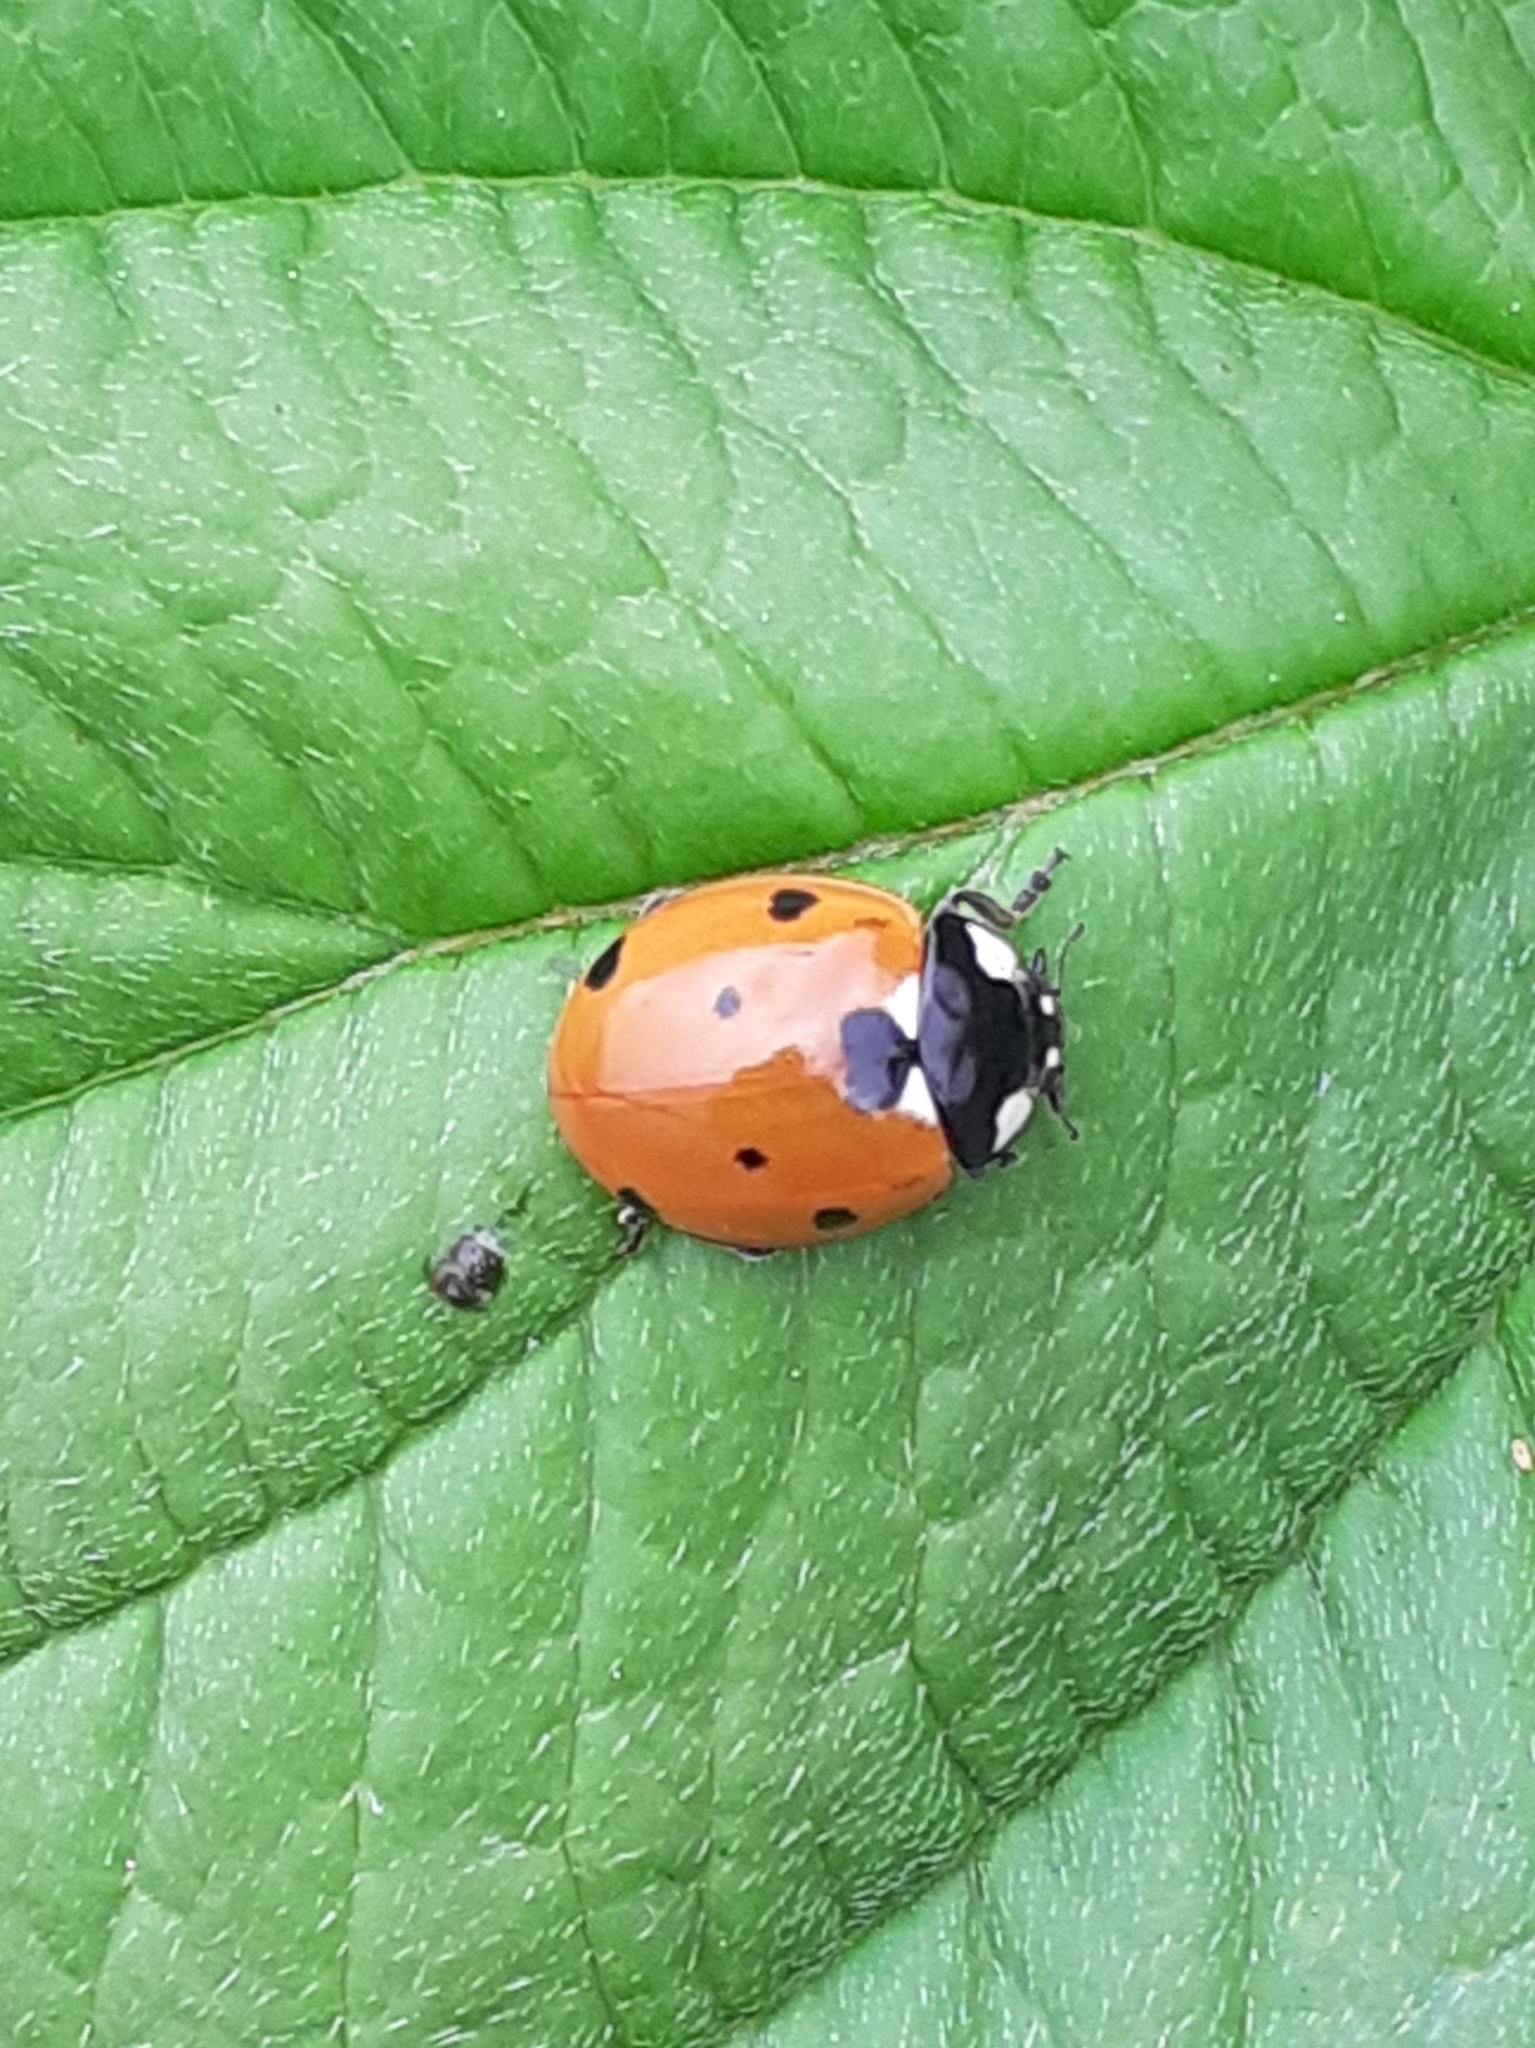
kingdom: Animalia
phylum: Arthropoda
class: Insecta
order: Coleoptera
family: Coccinellidae
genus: Coccinella
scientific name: Coccinella septempunctata
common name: Sevenspotted lady beetle
